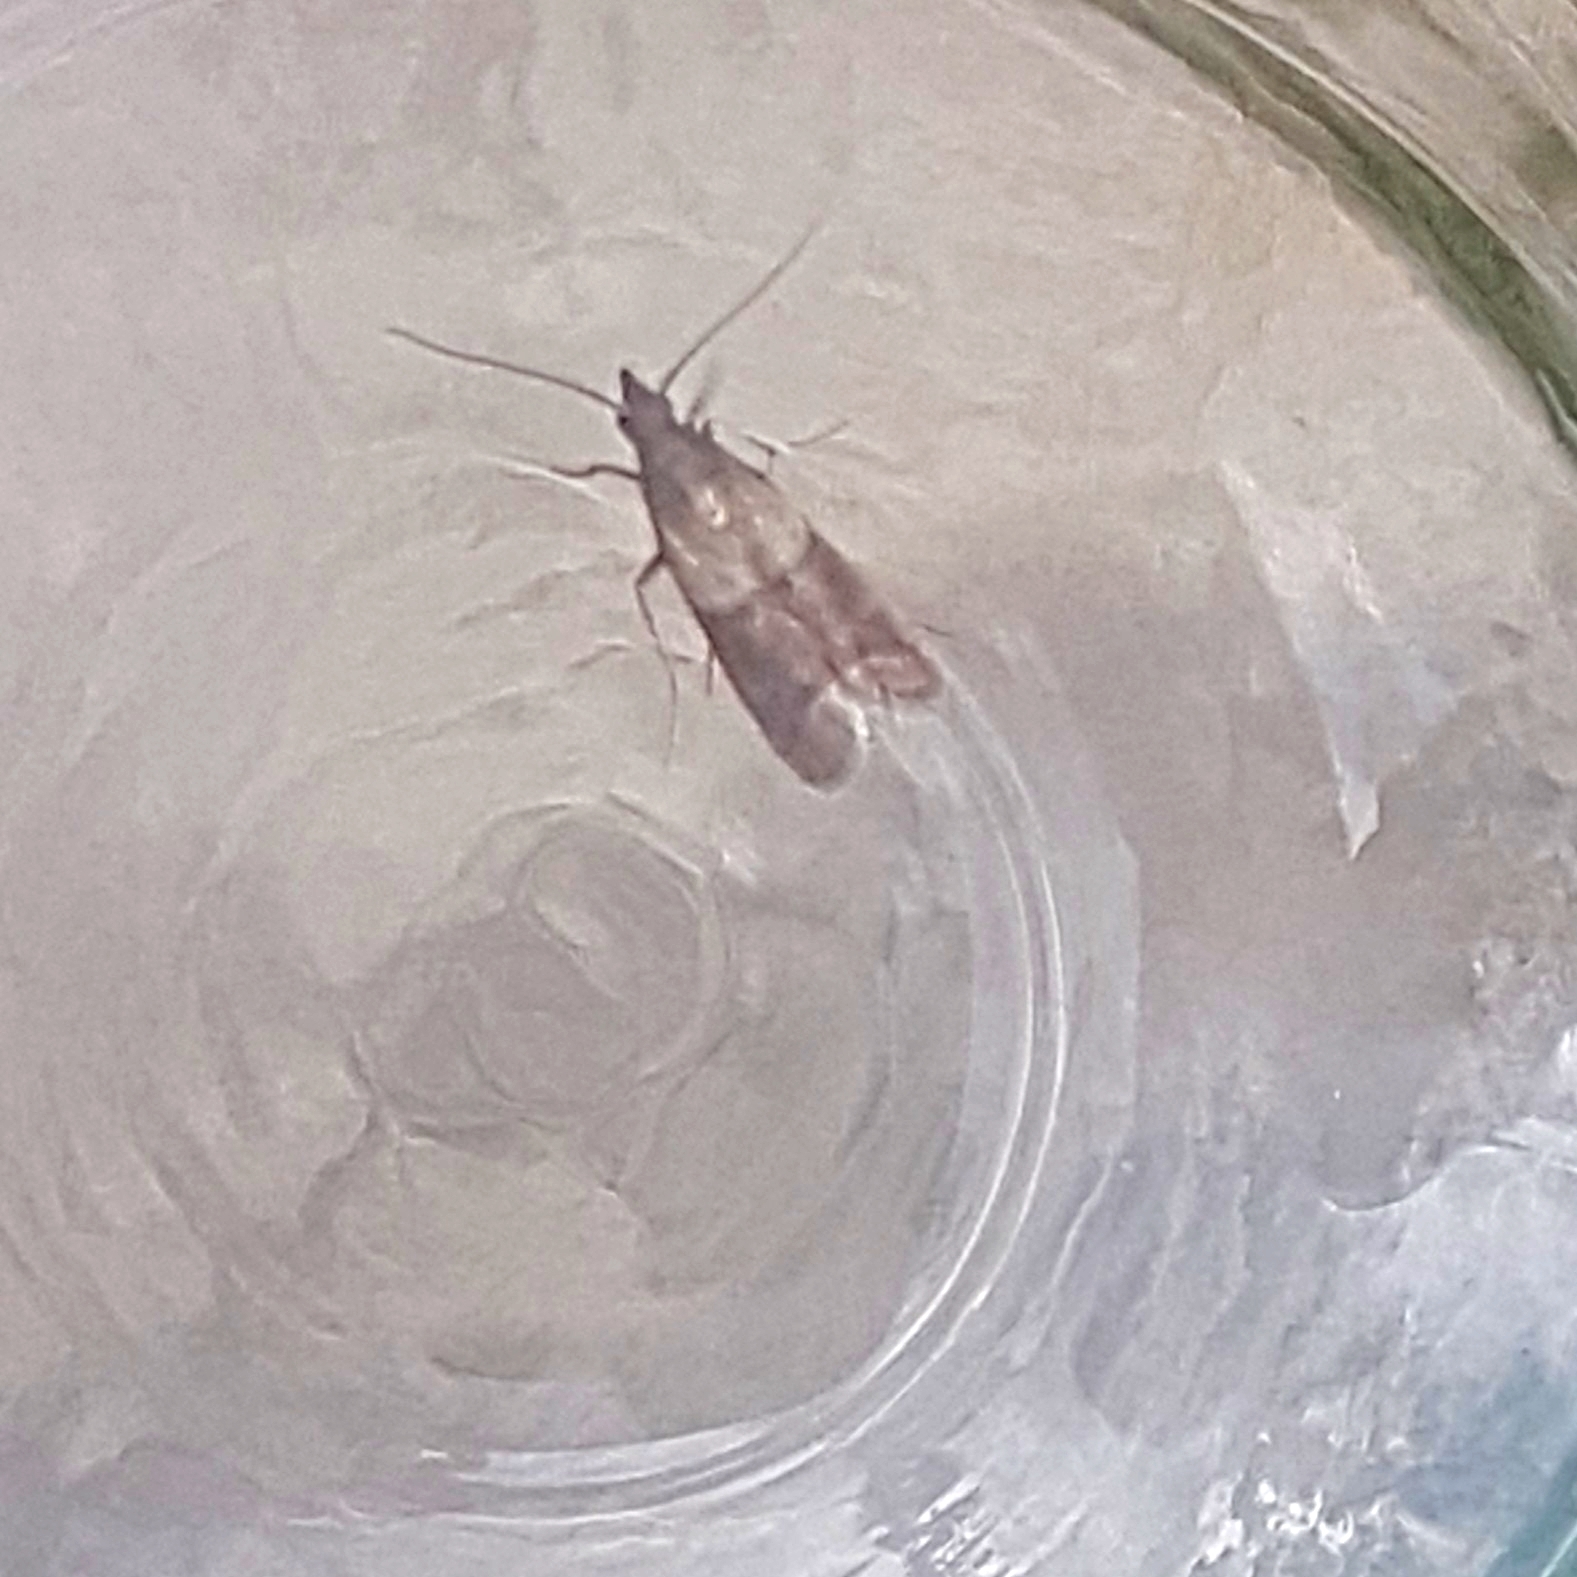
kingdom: Animalia
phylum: Arthropoda
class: Insecta
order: Lepidoptera
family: Pyralidae
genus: Plodia
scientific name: Plodia interpunctella
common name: Indian meal moth
